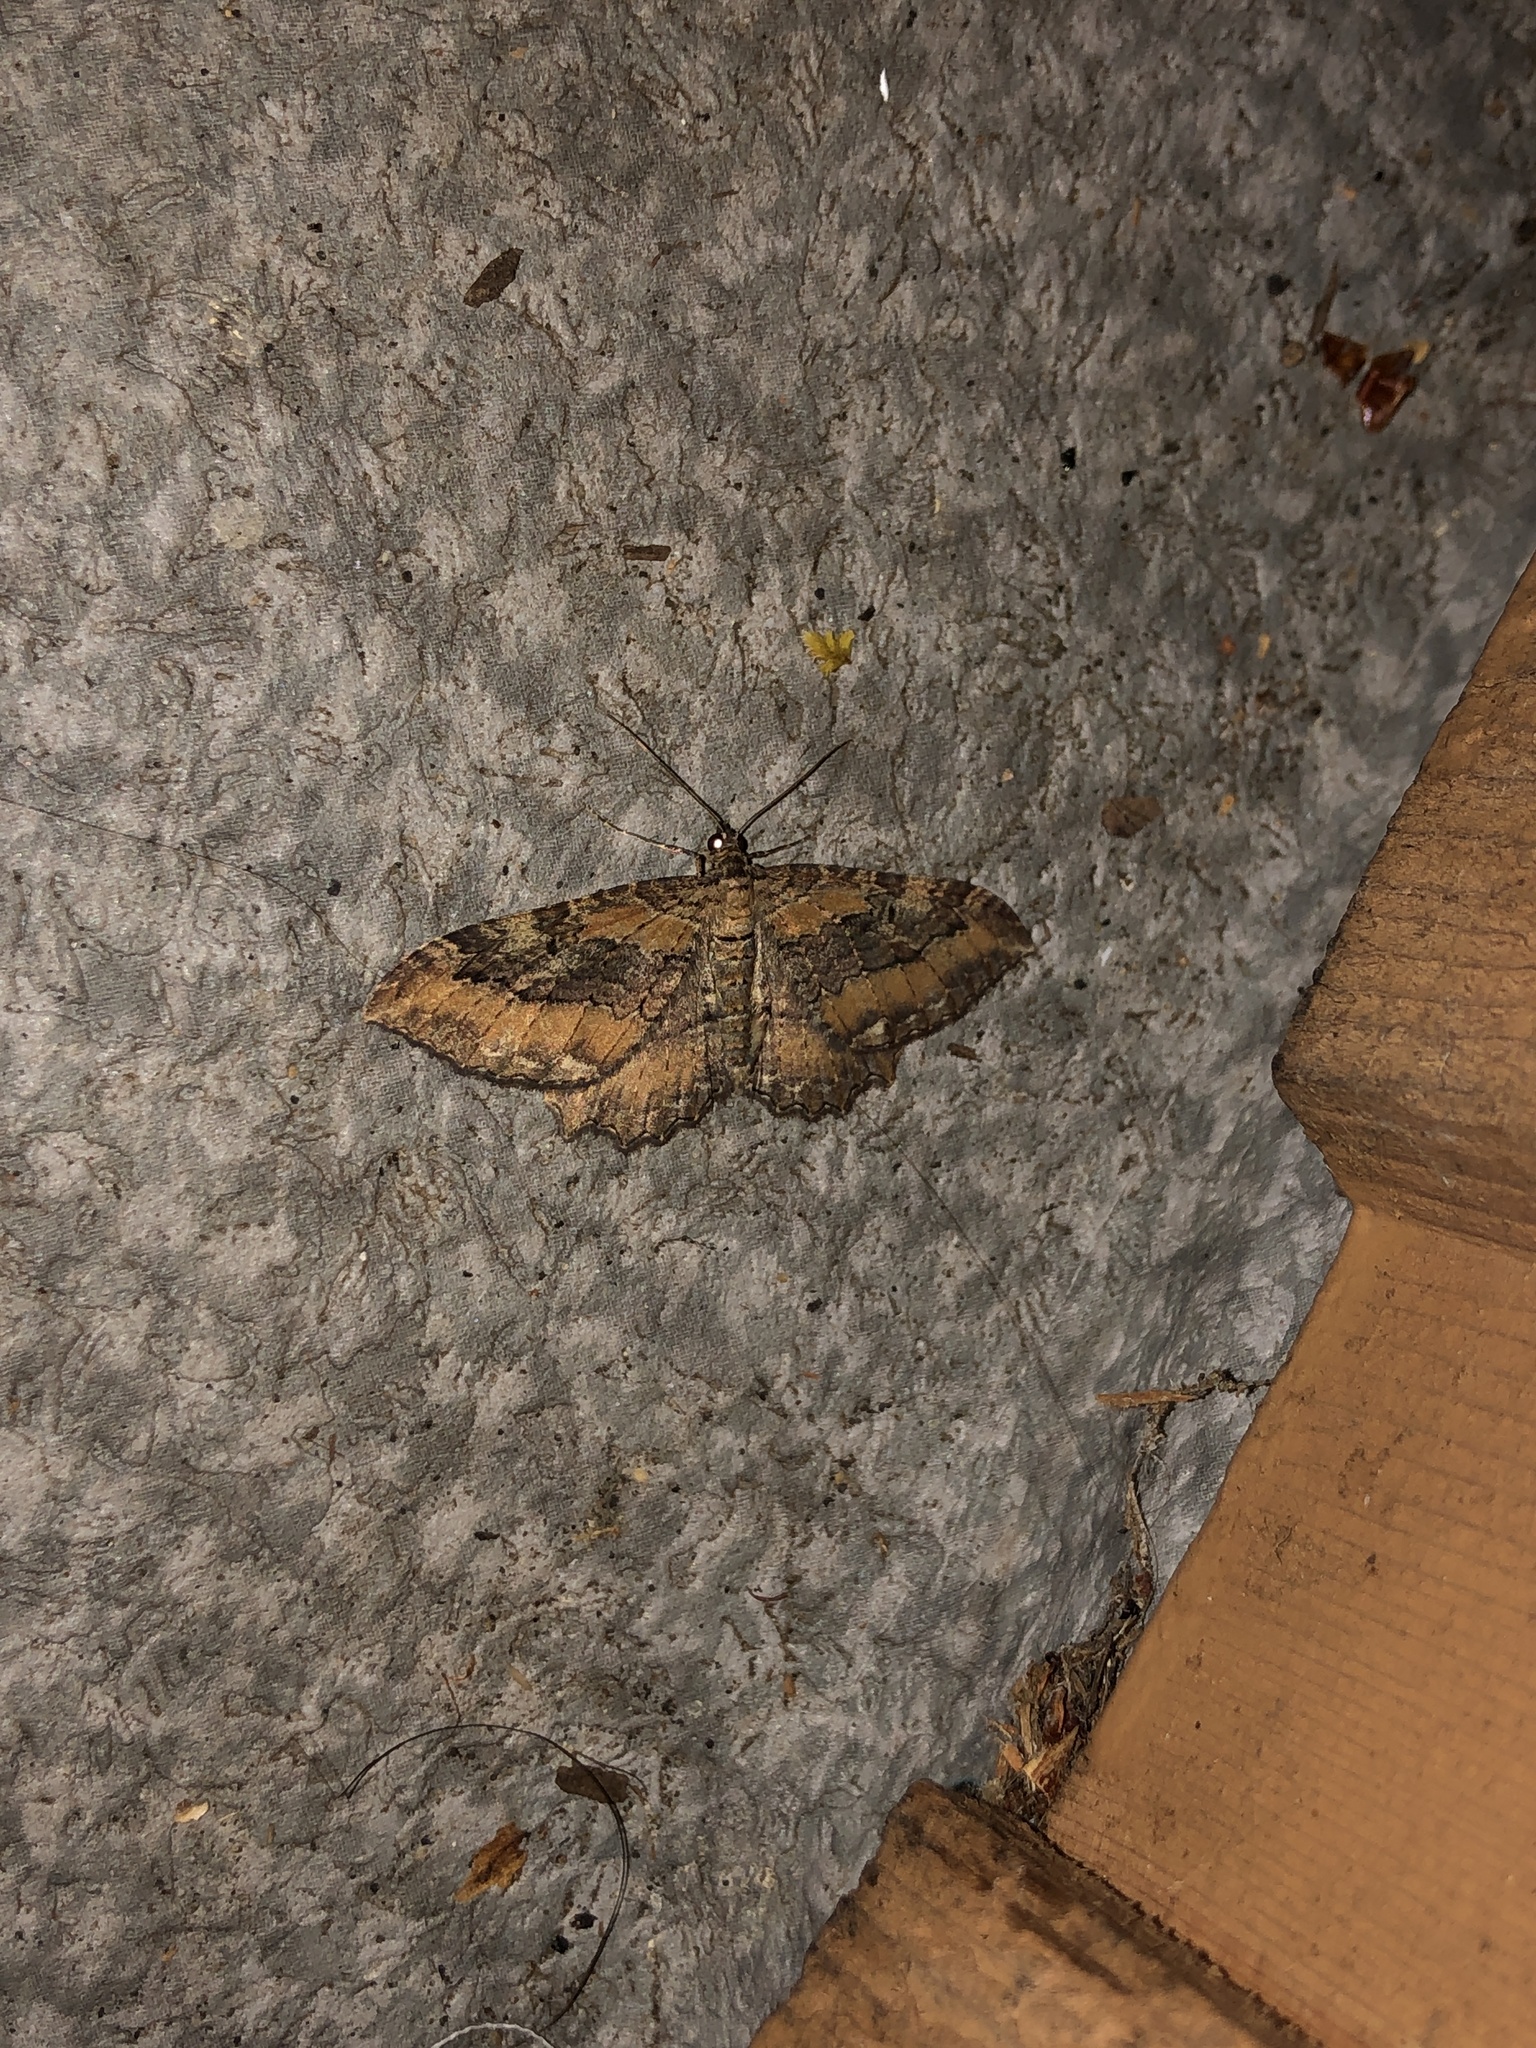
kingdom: Animalia
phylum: Arthropoda
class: Insecta
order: Lepidoptera
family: Geometridae
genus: Rheumaptera
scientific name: Rheumaptera
